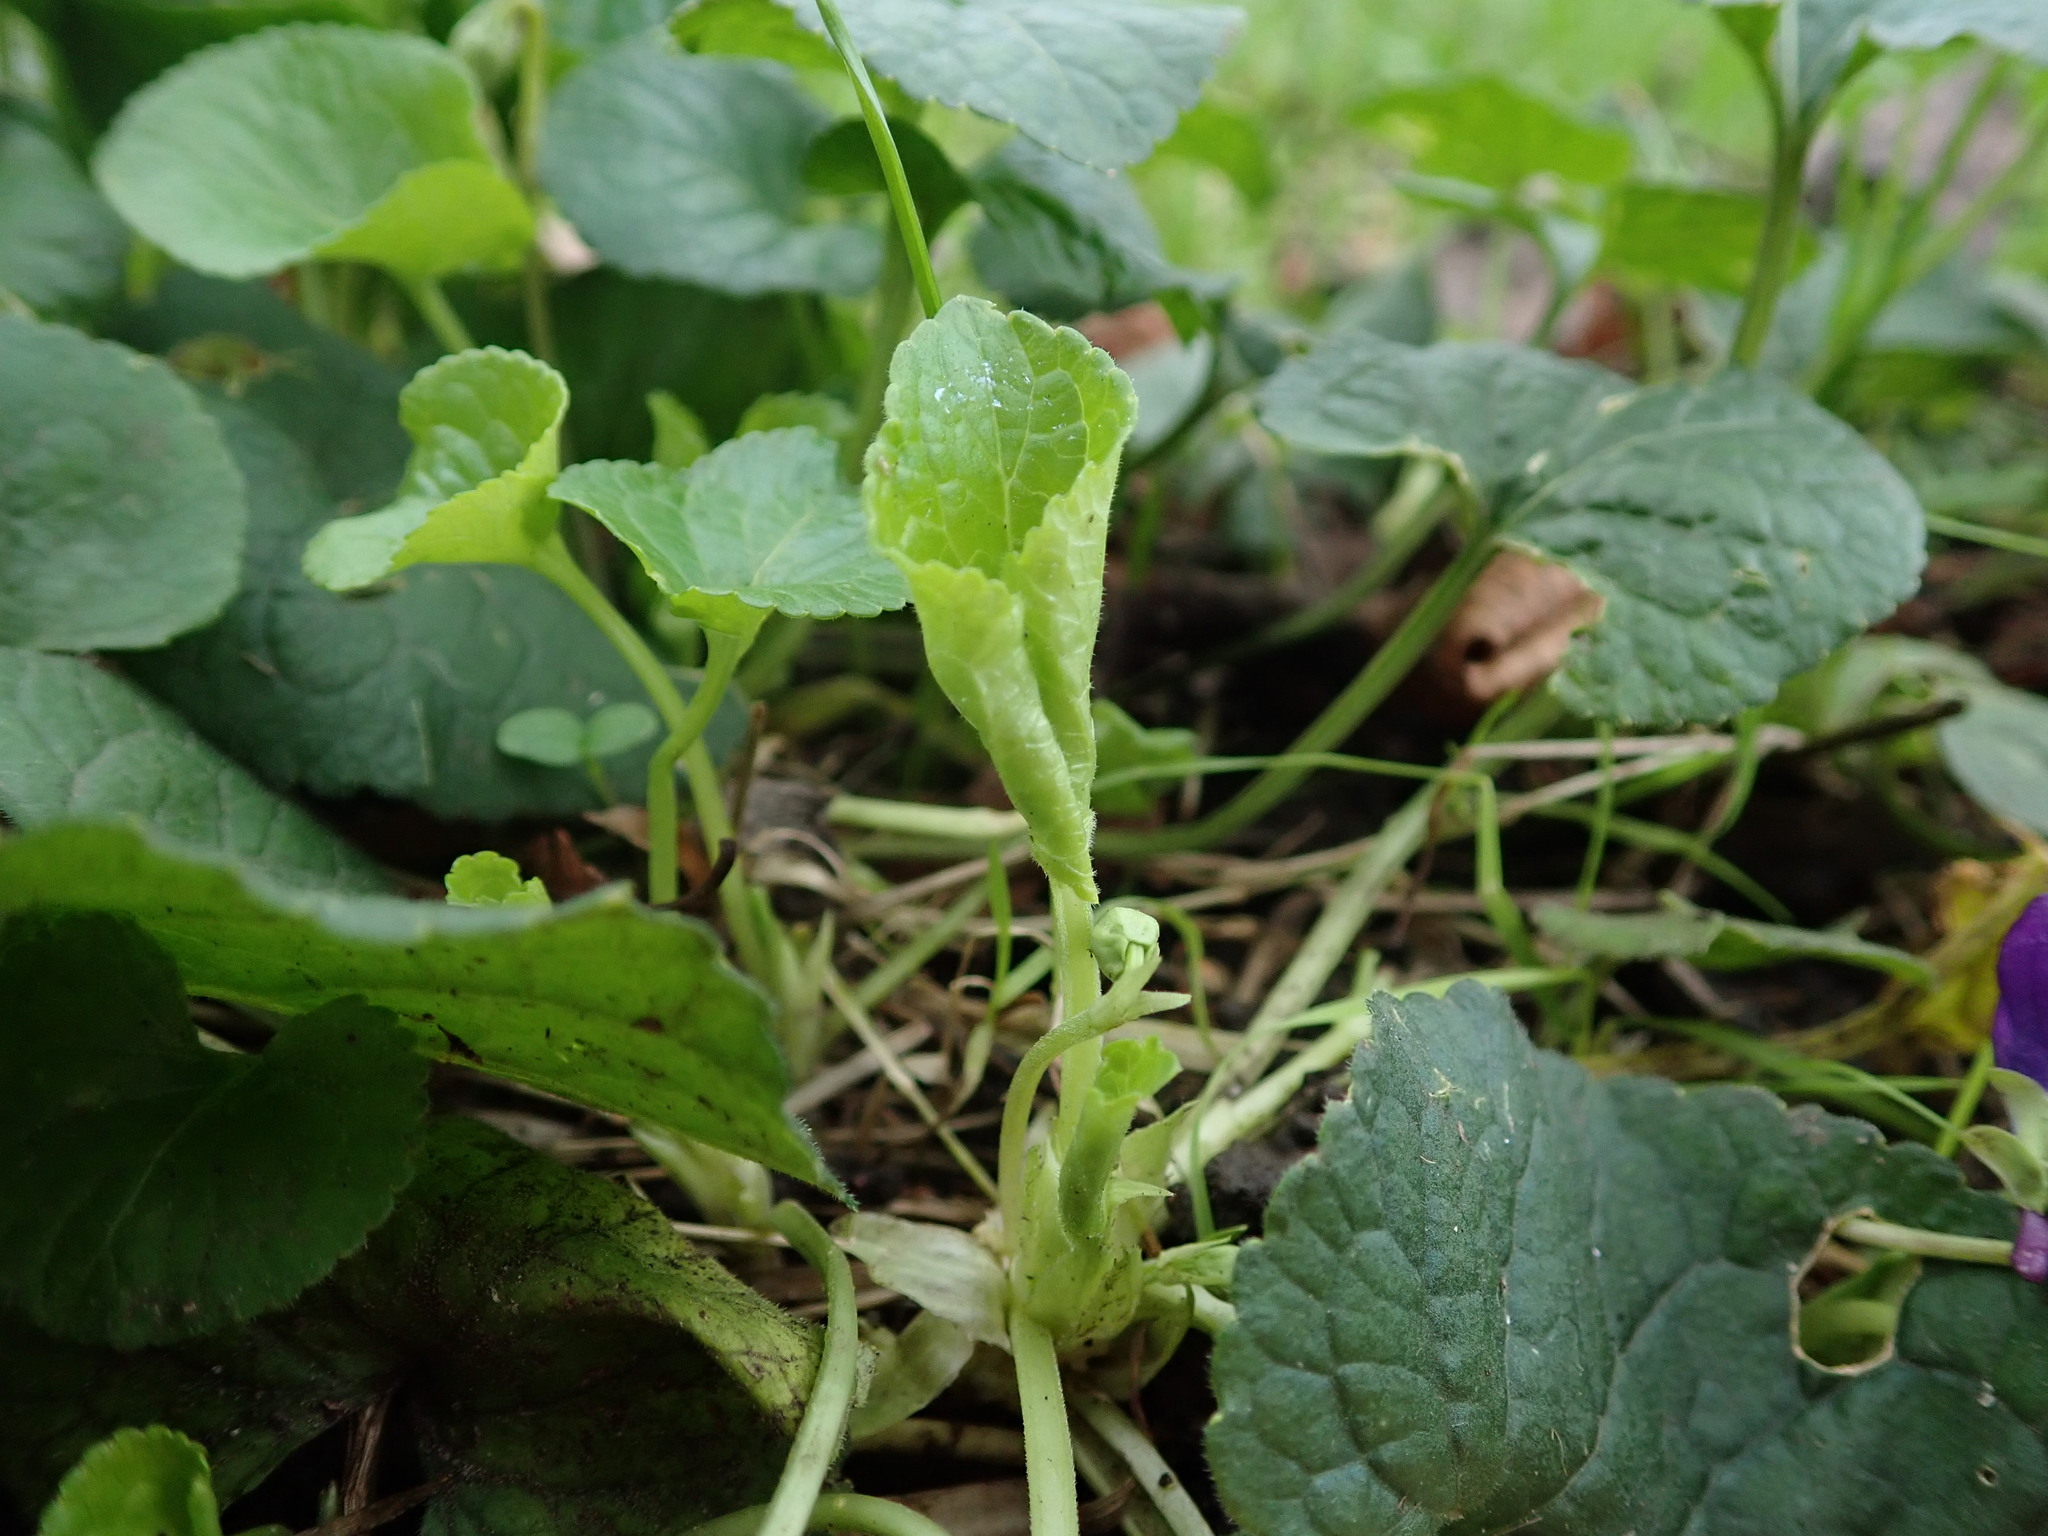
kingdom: Plantae
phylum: Tracheophyta
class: Magnoliopsida
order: Malpighiales
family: Violaceae
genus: Viola
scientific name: Viola odorata
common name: Sweet violet
